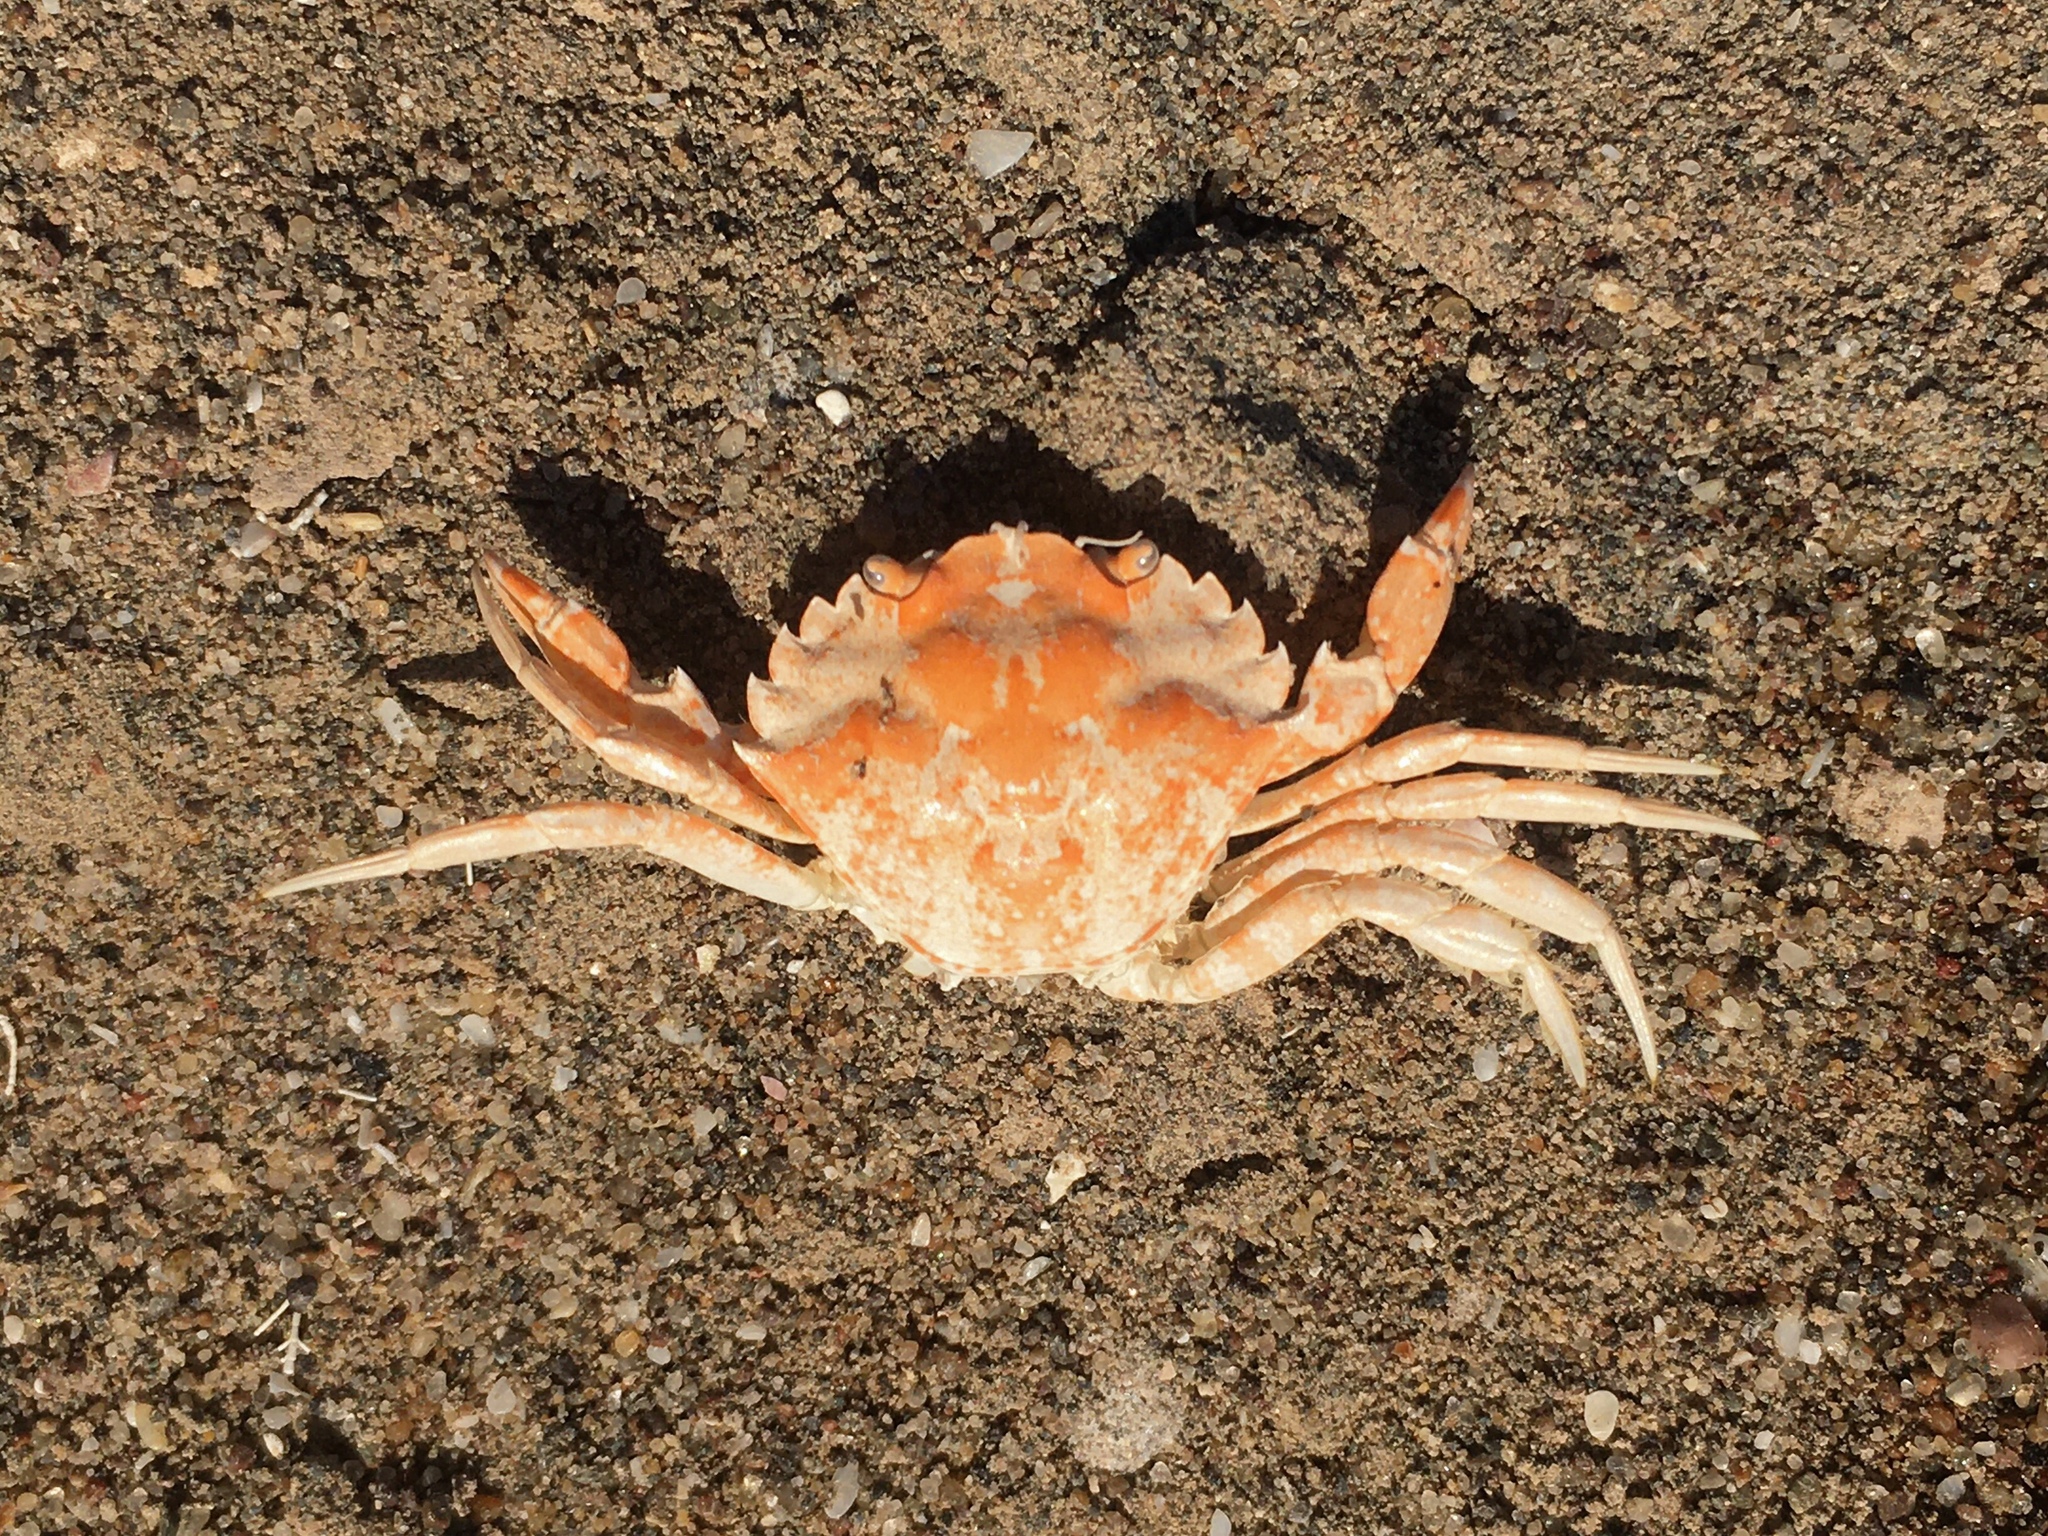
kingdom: Animalia
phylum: Arthropoda
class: Malacostraca
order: Decapoda
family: Carcinidae
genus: Carcinus
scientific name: Carcinus maenas
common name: European green crab
